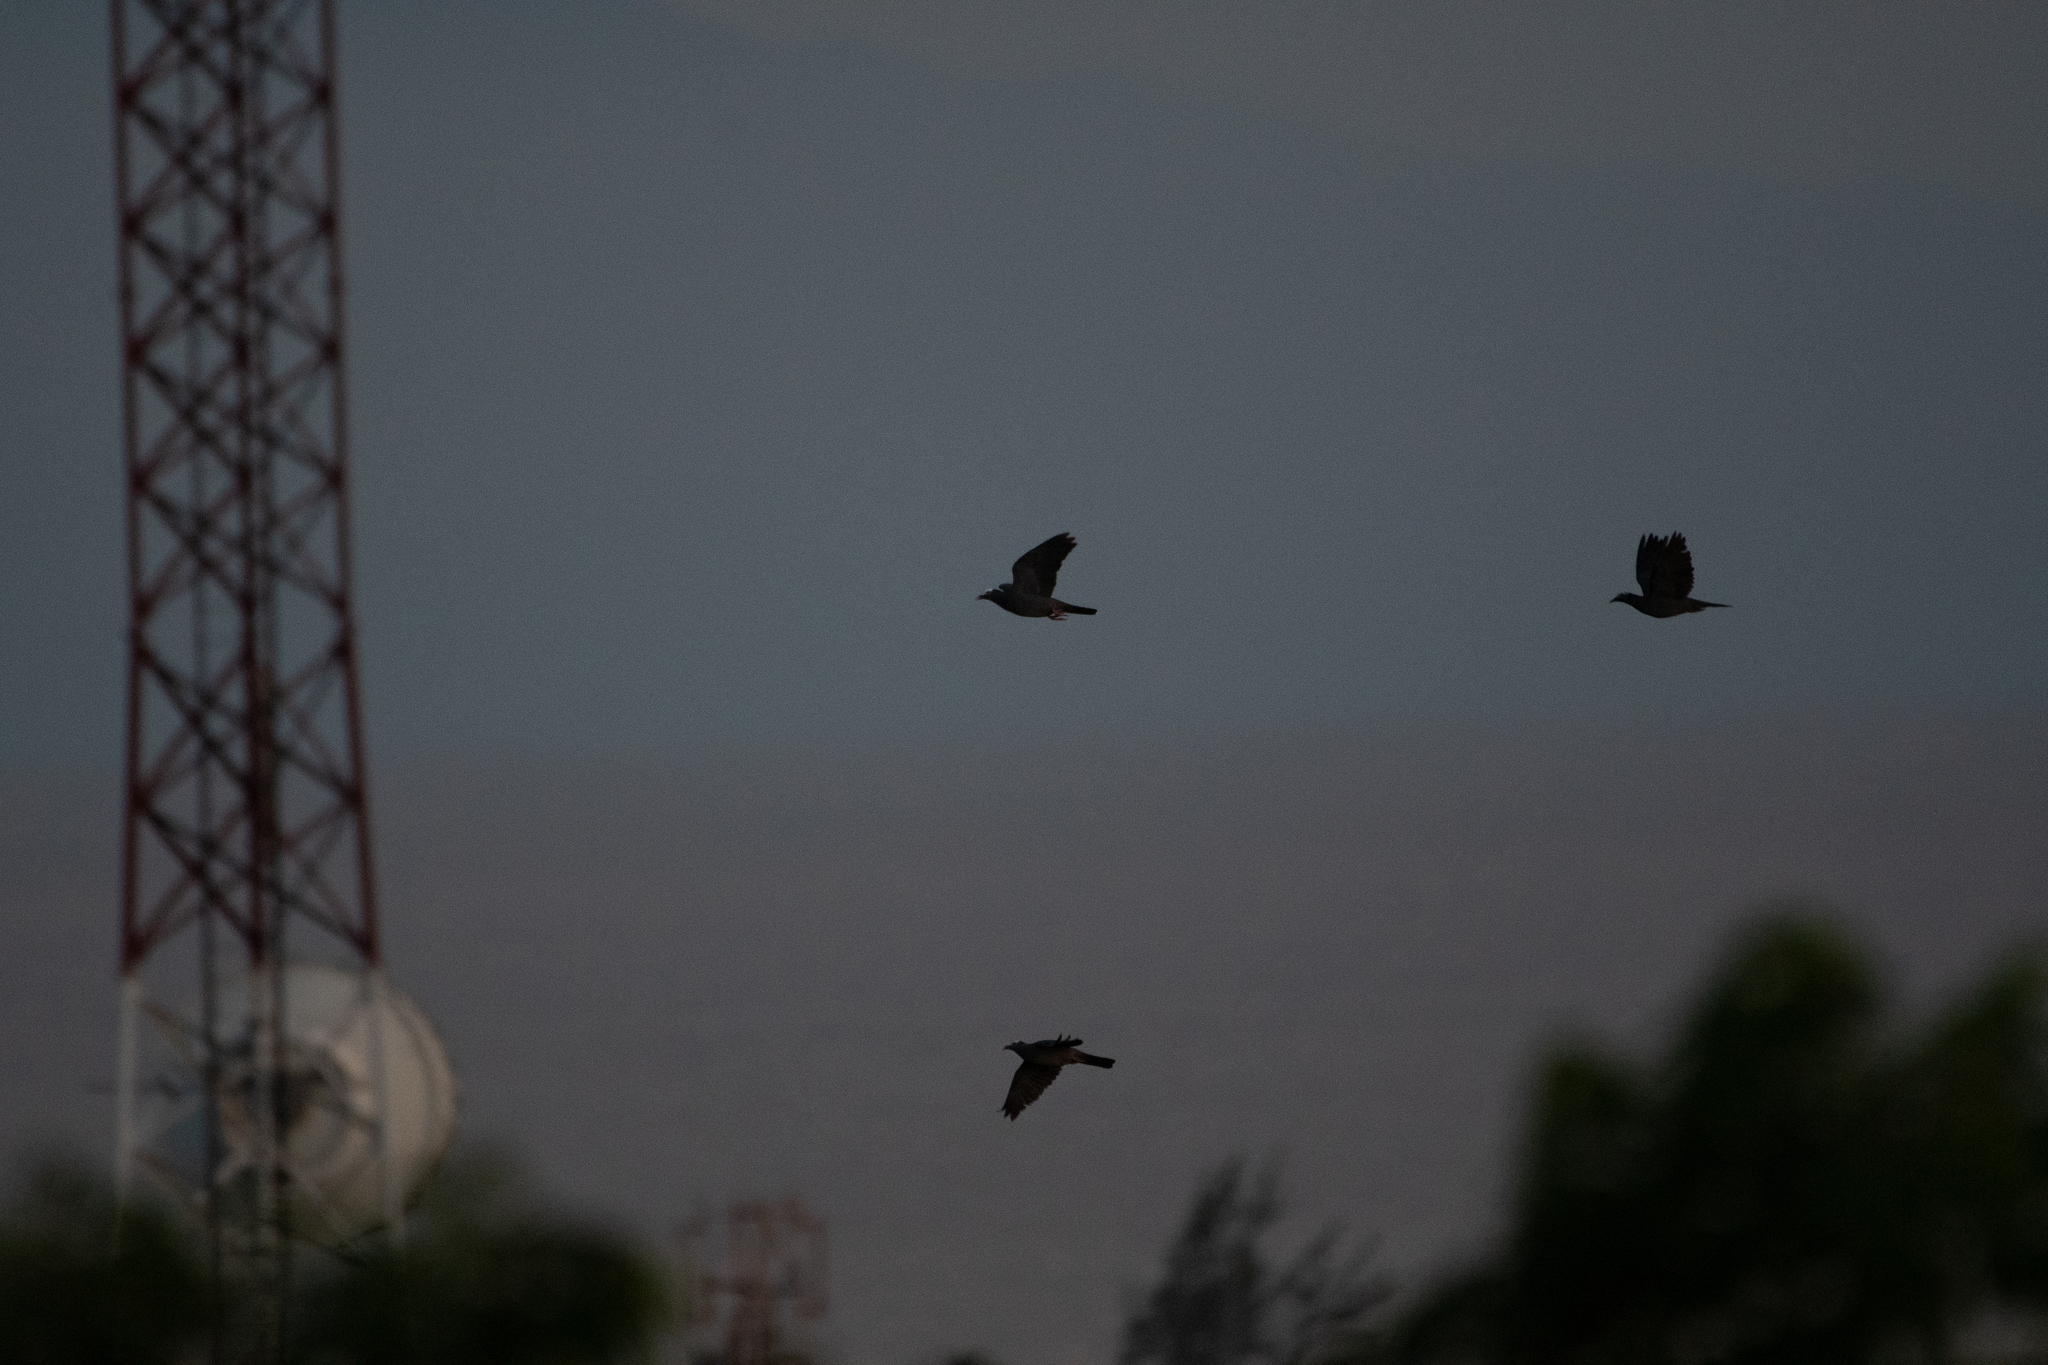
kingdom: Animalia
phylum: Chordata
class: Aves
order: Columbiformes
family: Columbidae
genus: Patagioenas
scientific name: Patagioenas leucocephala
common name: White-crowned pigeon
